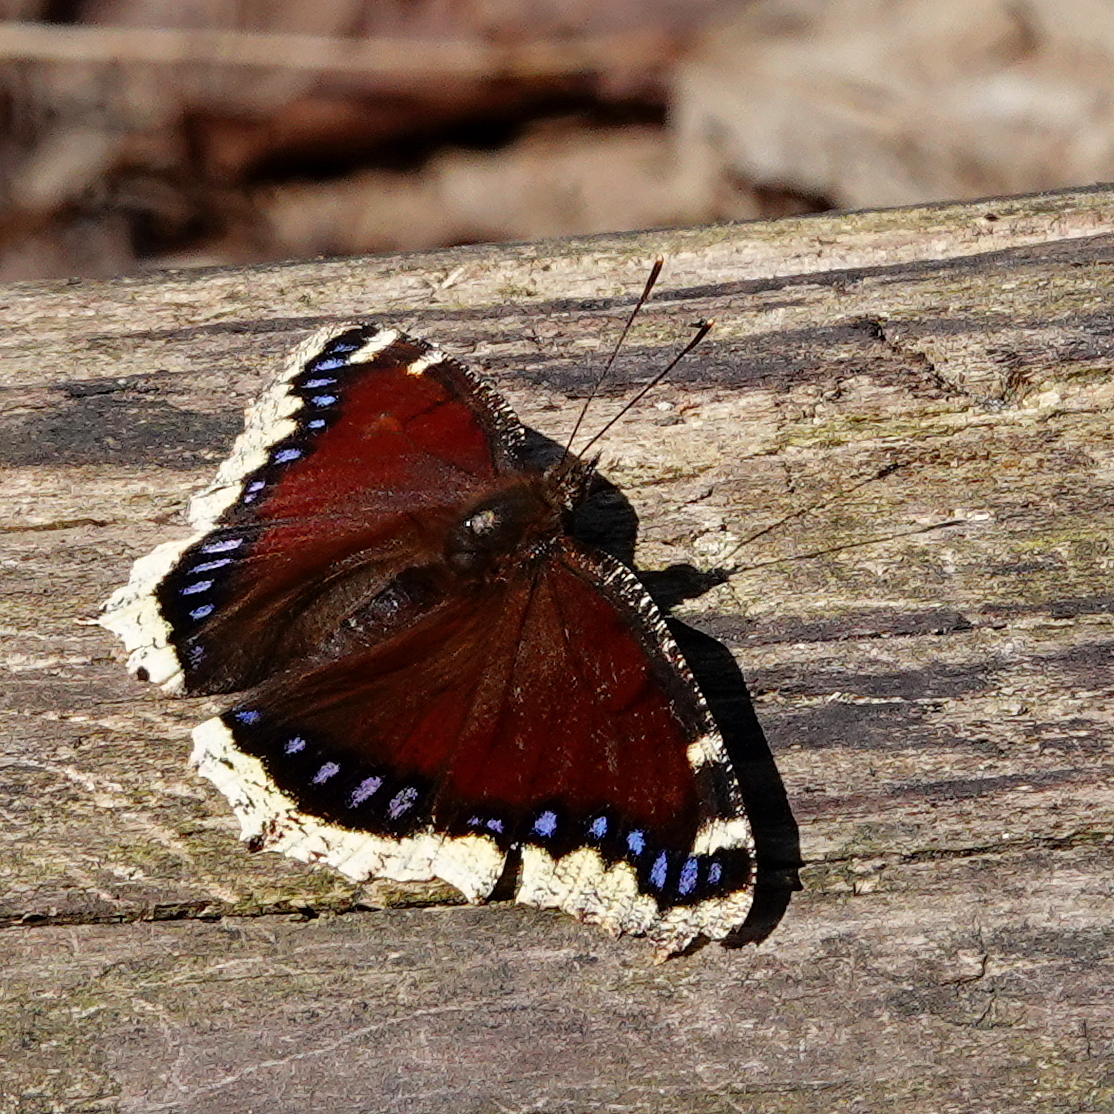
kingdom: Animalia
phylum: Arthropoda
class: Insecta
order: Lepidoptera
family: Nymphalidae
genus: Nymphalis
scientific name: Nymphalis antiopa
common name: Camberwell beauty
